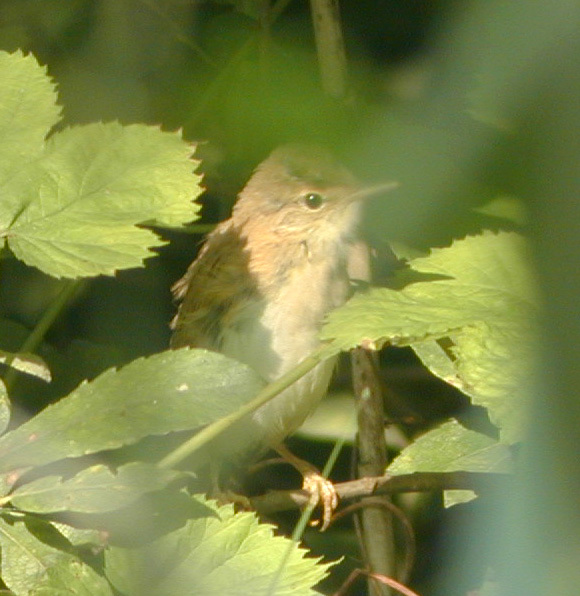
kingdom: Animalia
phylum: Chordata
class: Aves
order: Passeriformes
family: Acrocephalidae
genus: Acrocephalus
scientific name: Acrocephalus palustris
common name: Marsh warbler
